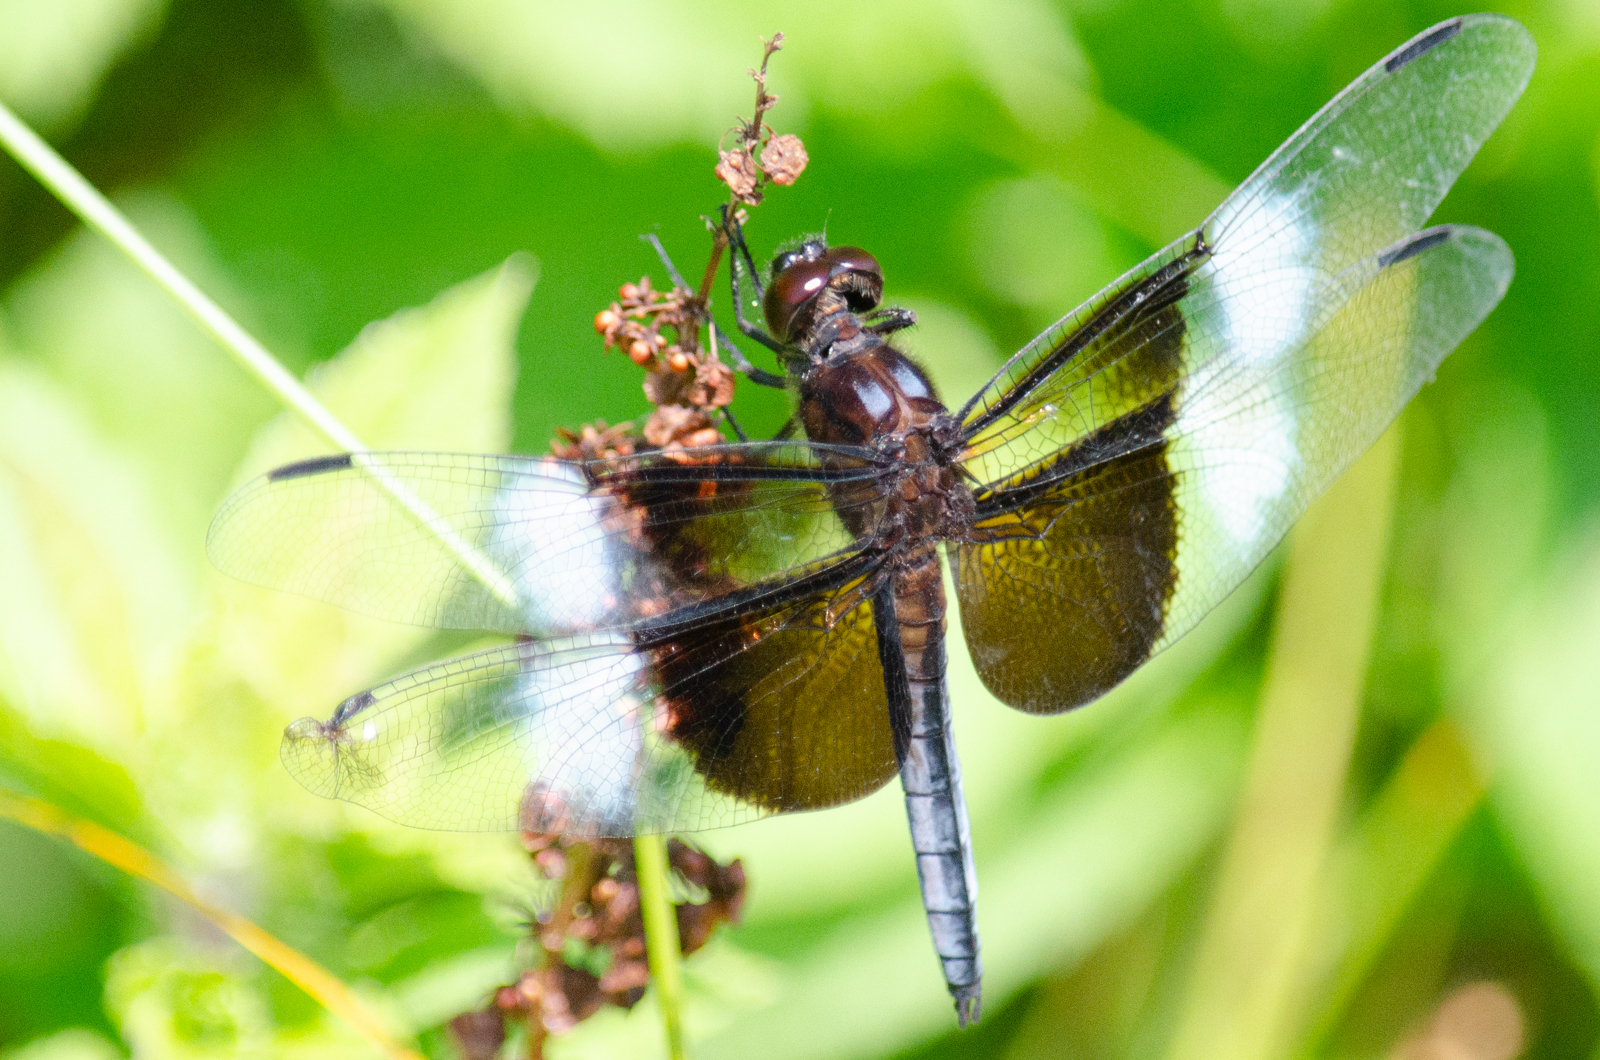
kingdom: Animalia
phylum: Arthropoda
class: Insecta
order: Odonata
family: Libellulidae
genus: Libellula
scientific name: Libellula luctuosa
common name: Widow skimmer
